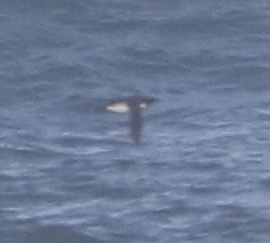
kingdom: Animalia
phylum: Chordata
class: Aves
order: Charadriiformes
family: Alcidae
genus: Uria
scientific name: Uria aalge
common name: Common murre
